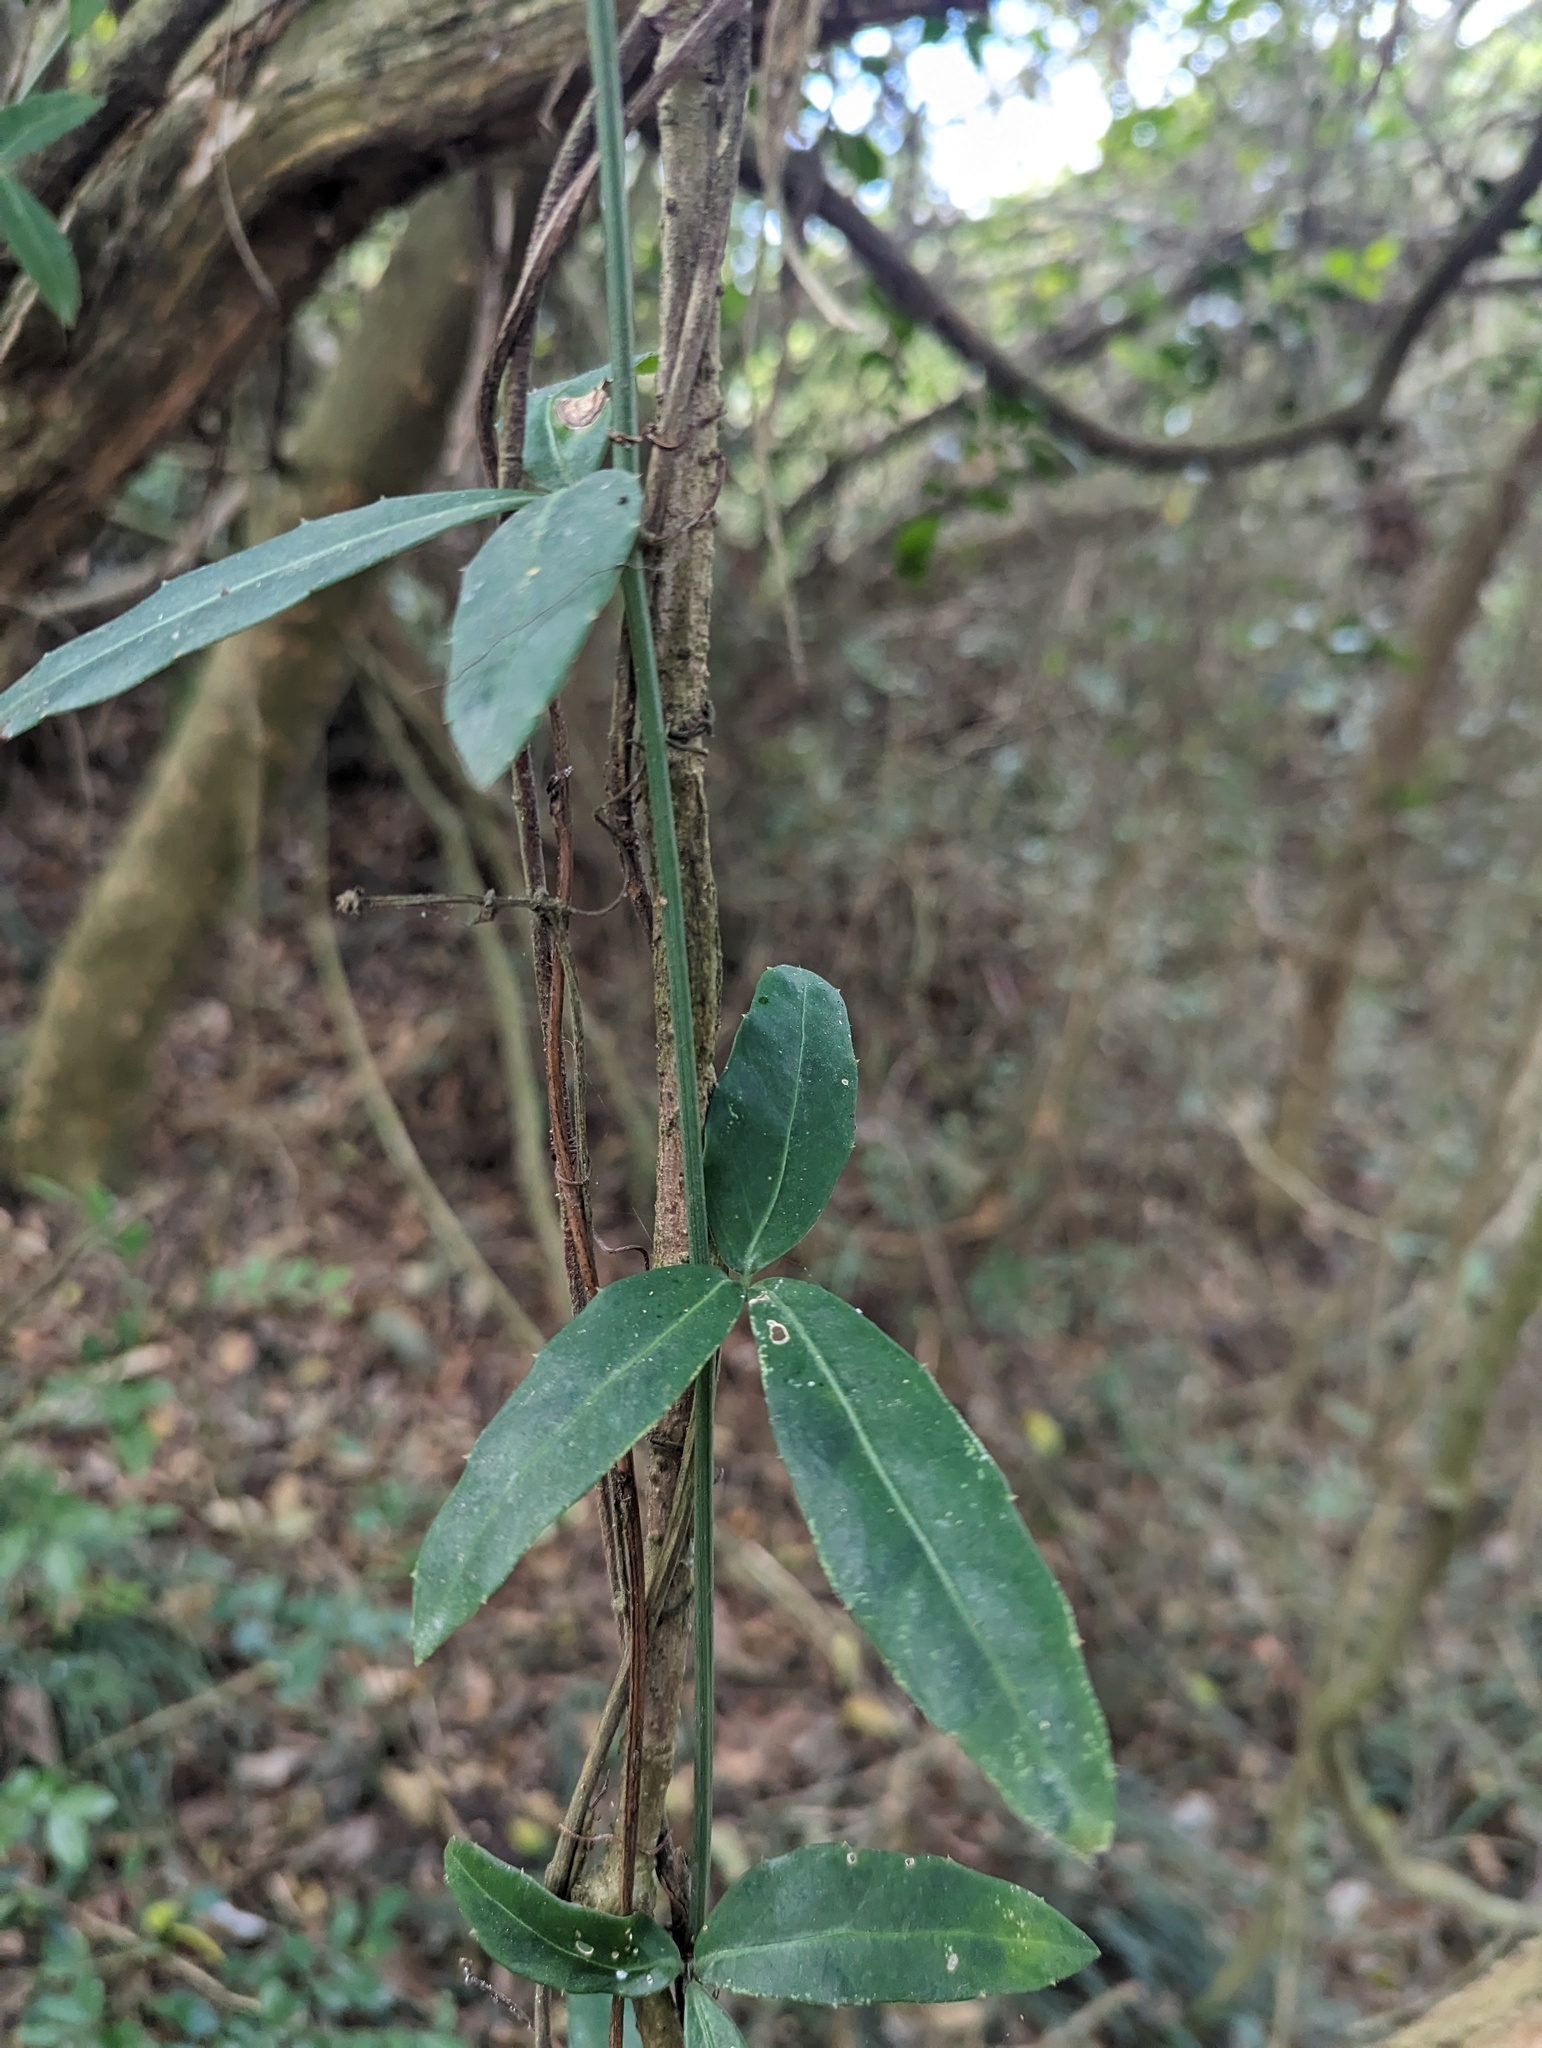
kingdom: Plantae
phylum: Tracheophyta
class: Magnoliopsida
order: Vitales
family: Vitaceae
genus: Tetrastigma
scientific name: Tetrastigma formosanum
